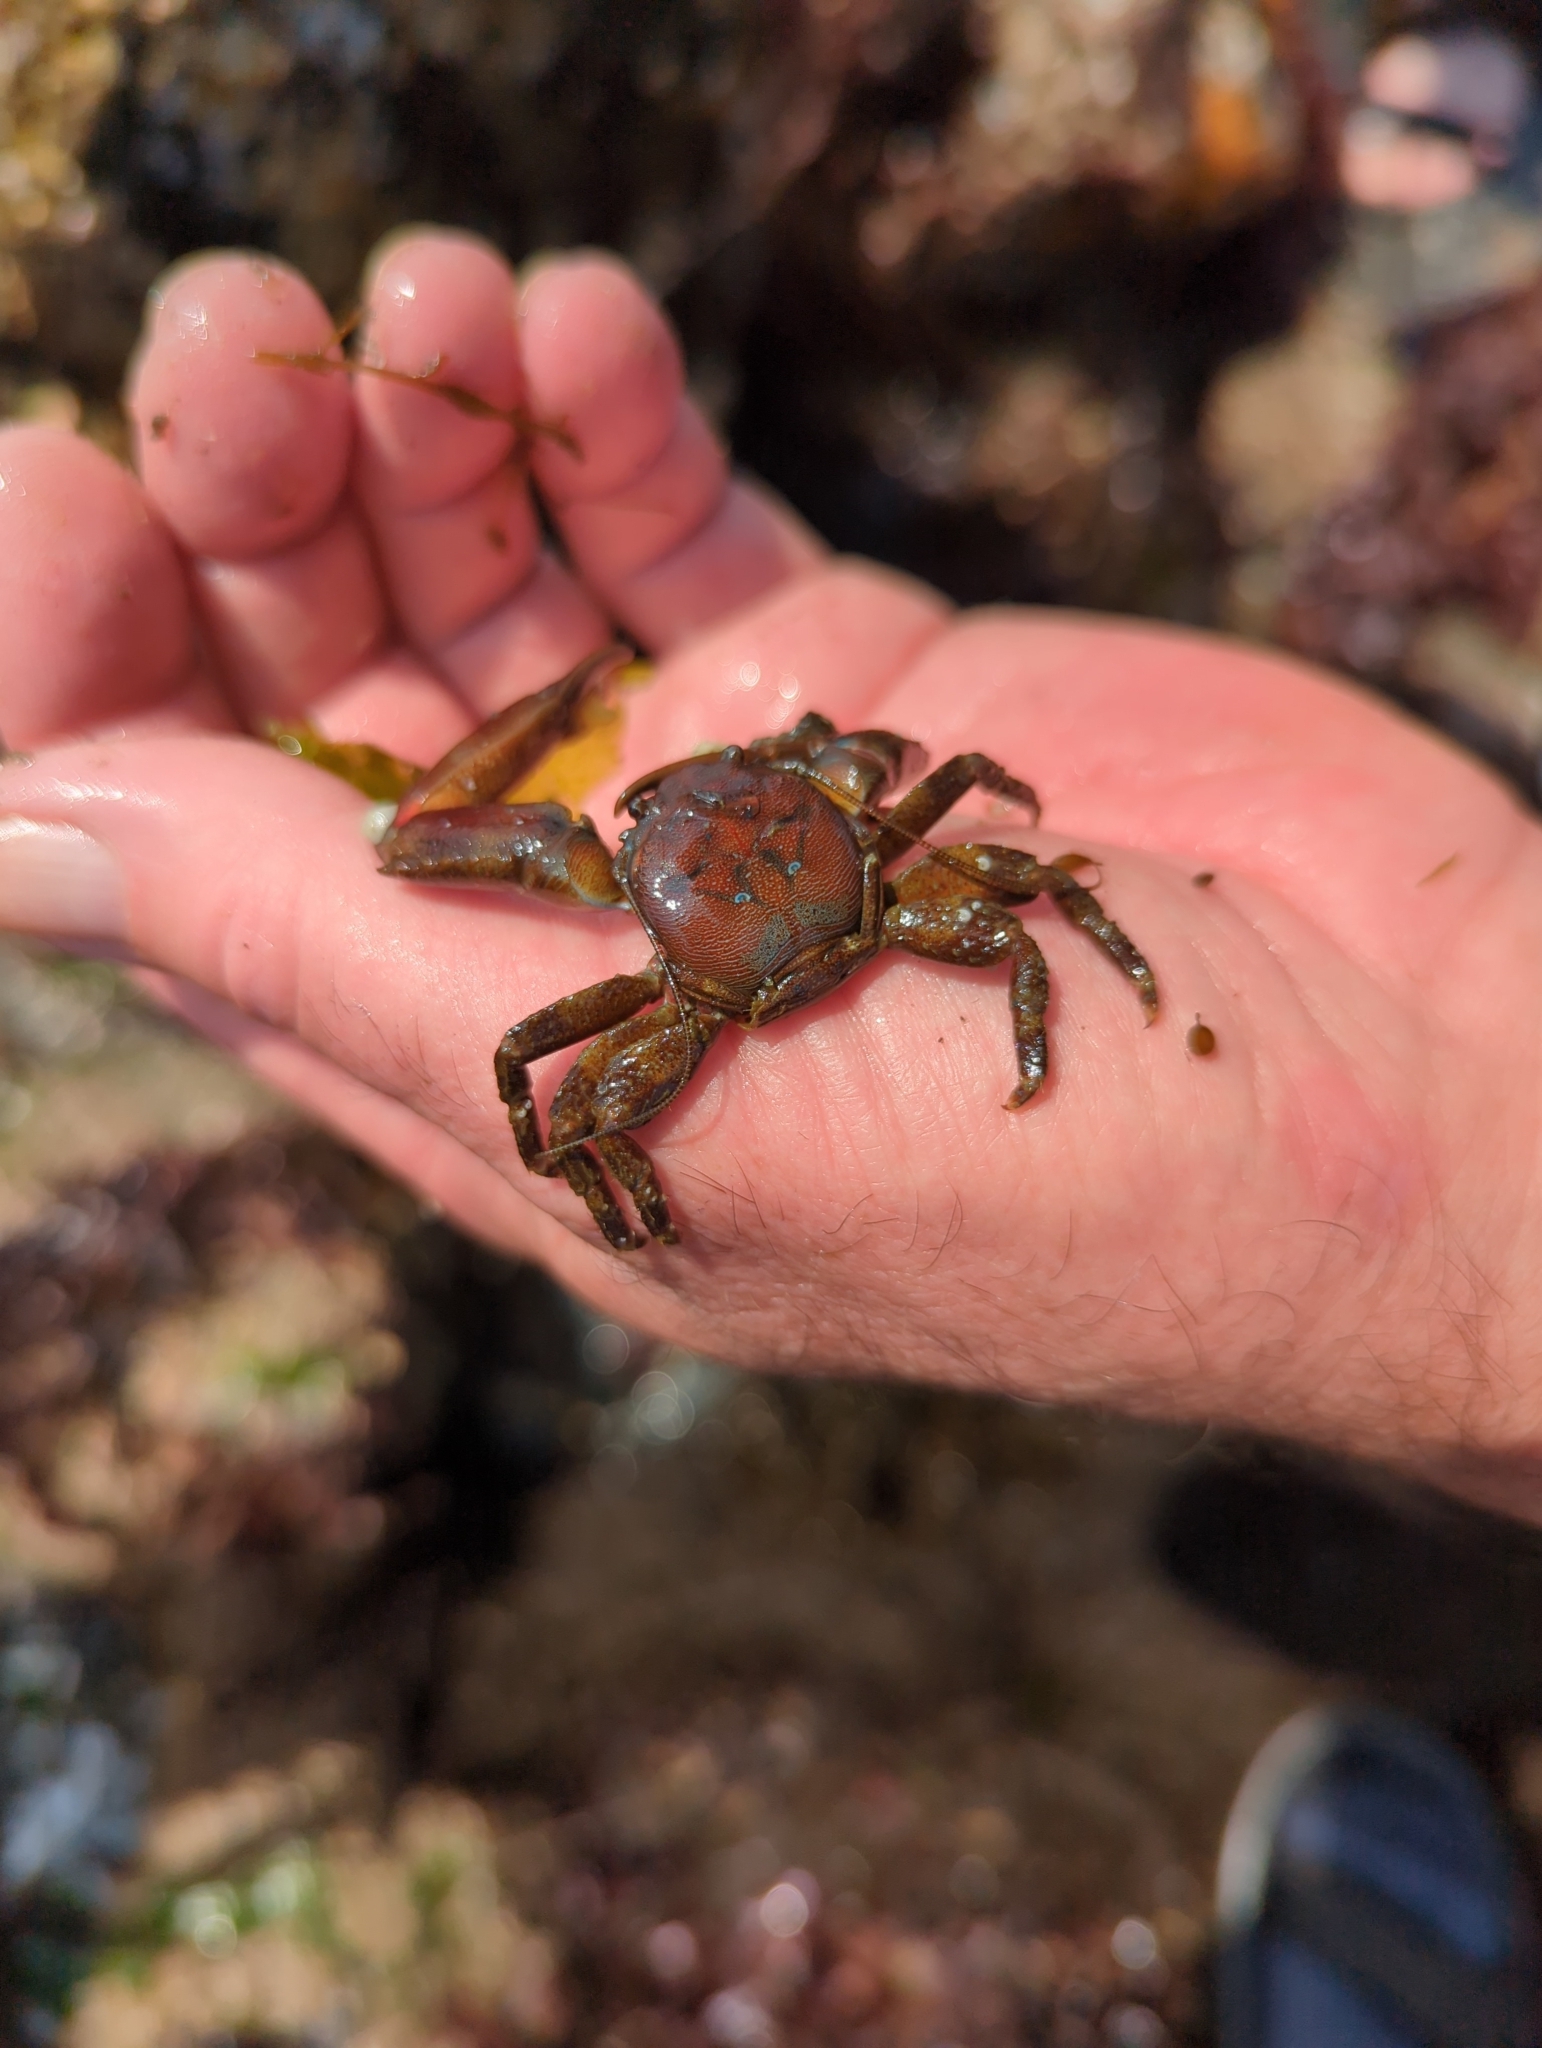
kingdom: Animalia
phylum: Arthropoda
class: Malacostraca
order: Decapoda
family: Porcellanidae
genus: Petrolisthes
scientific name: Petrolisthes eriomerus
